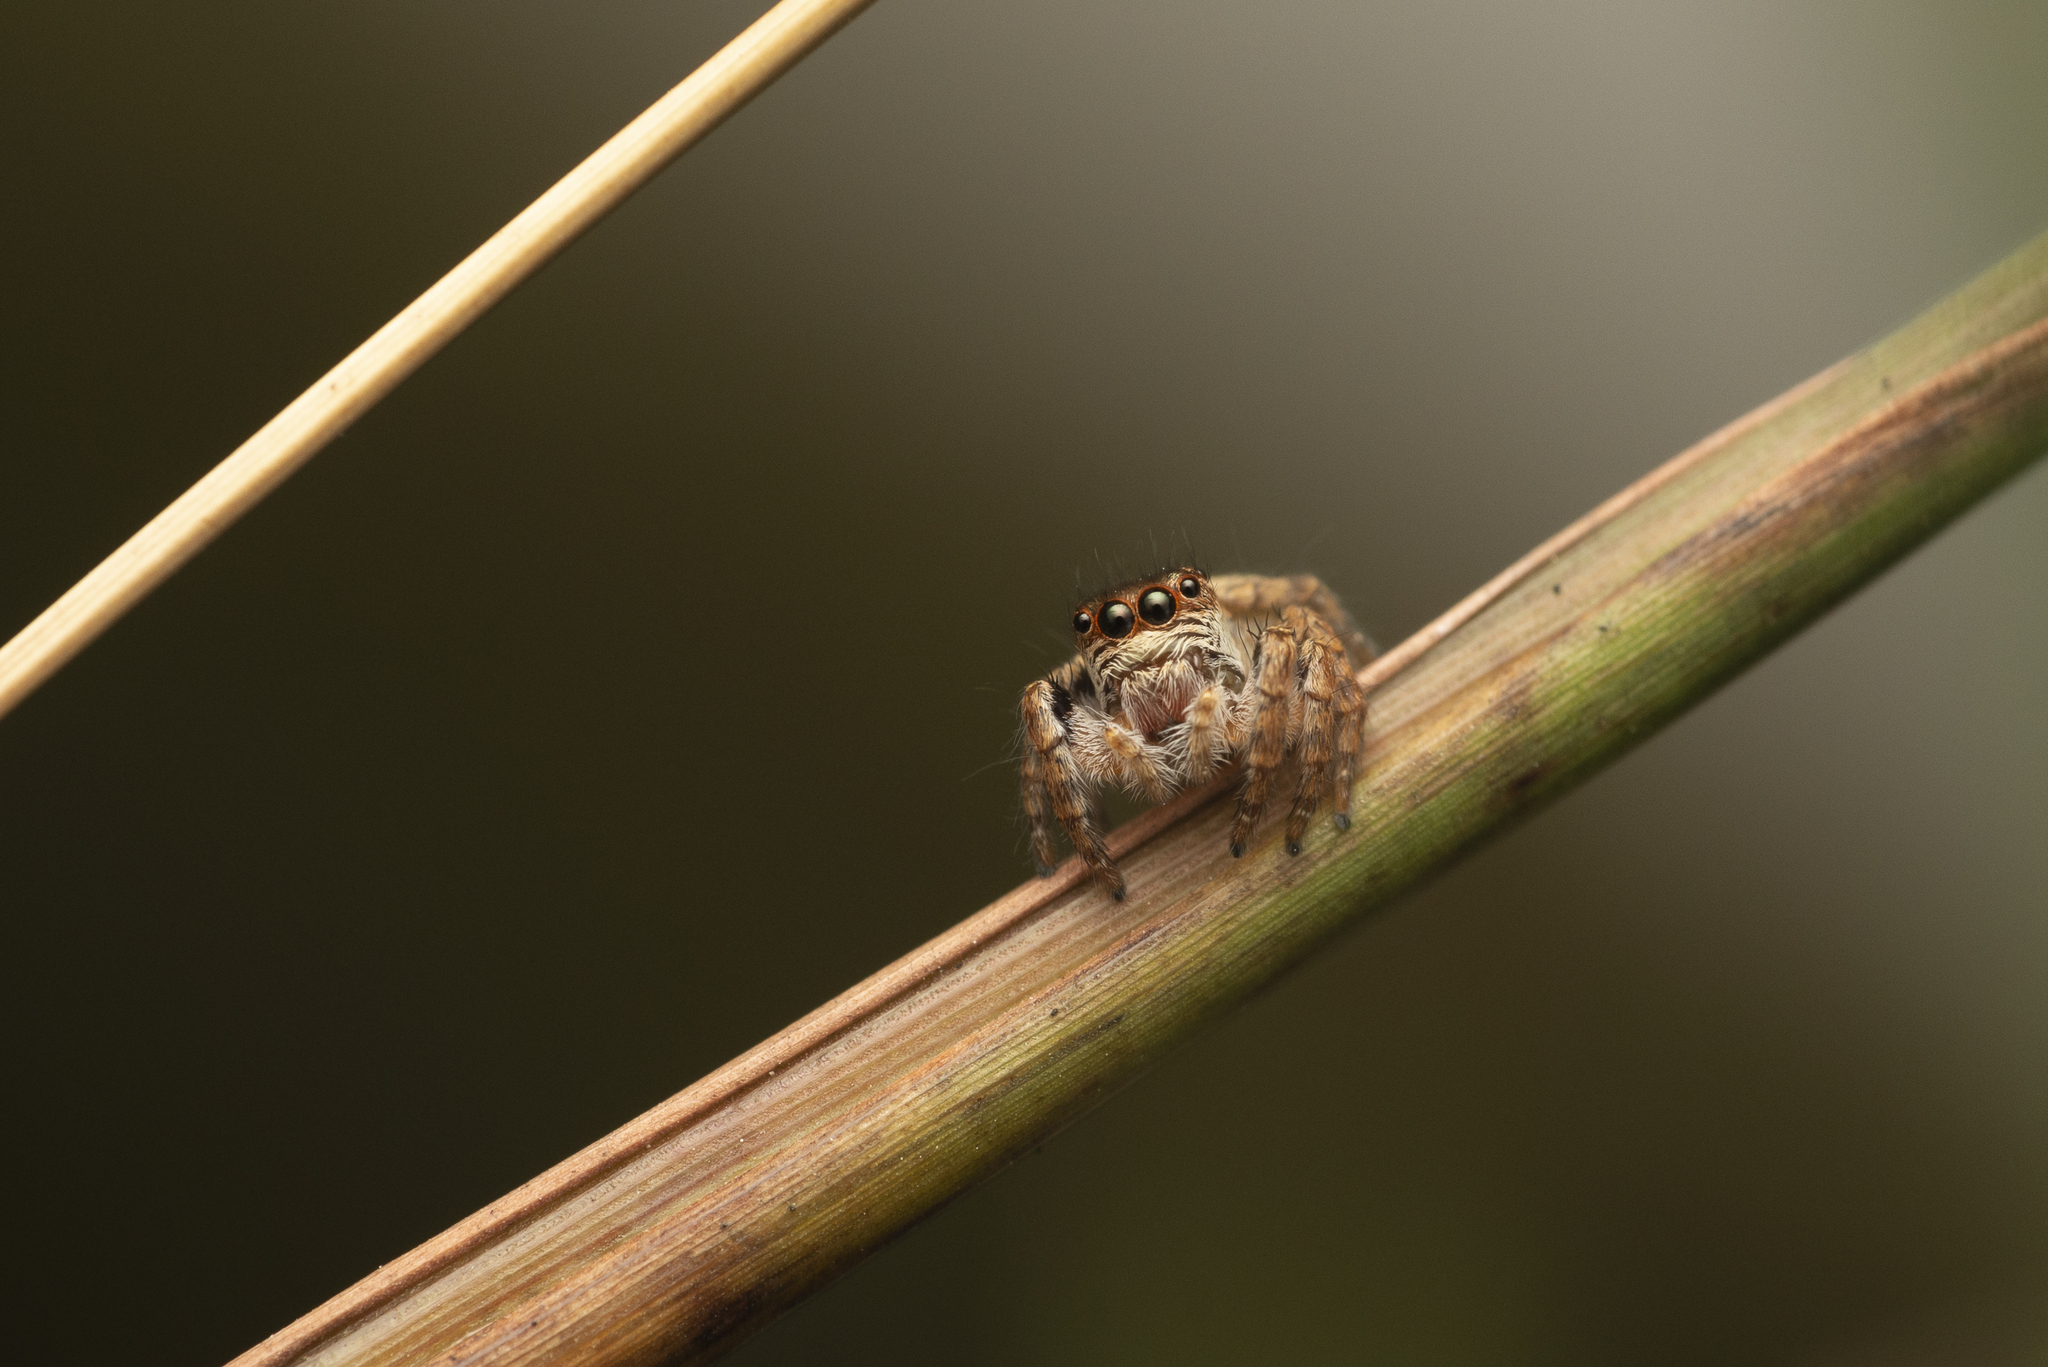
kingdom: Animalia
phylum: Arthropoda
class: Arachnida
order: Araneae
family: Salticidae
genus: Carrhotus
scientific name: Carrhotus viduus
